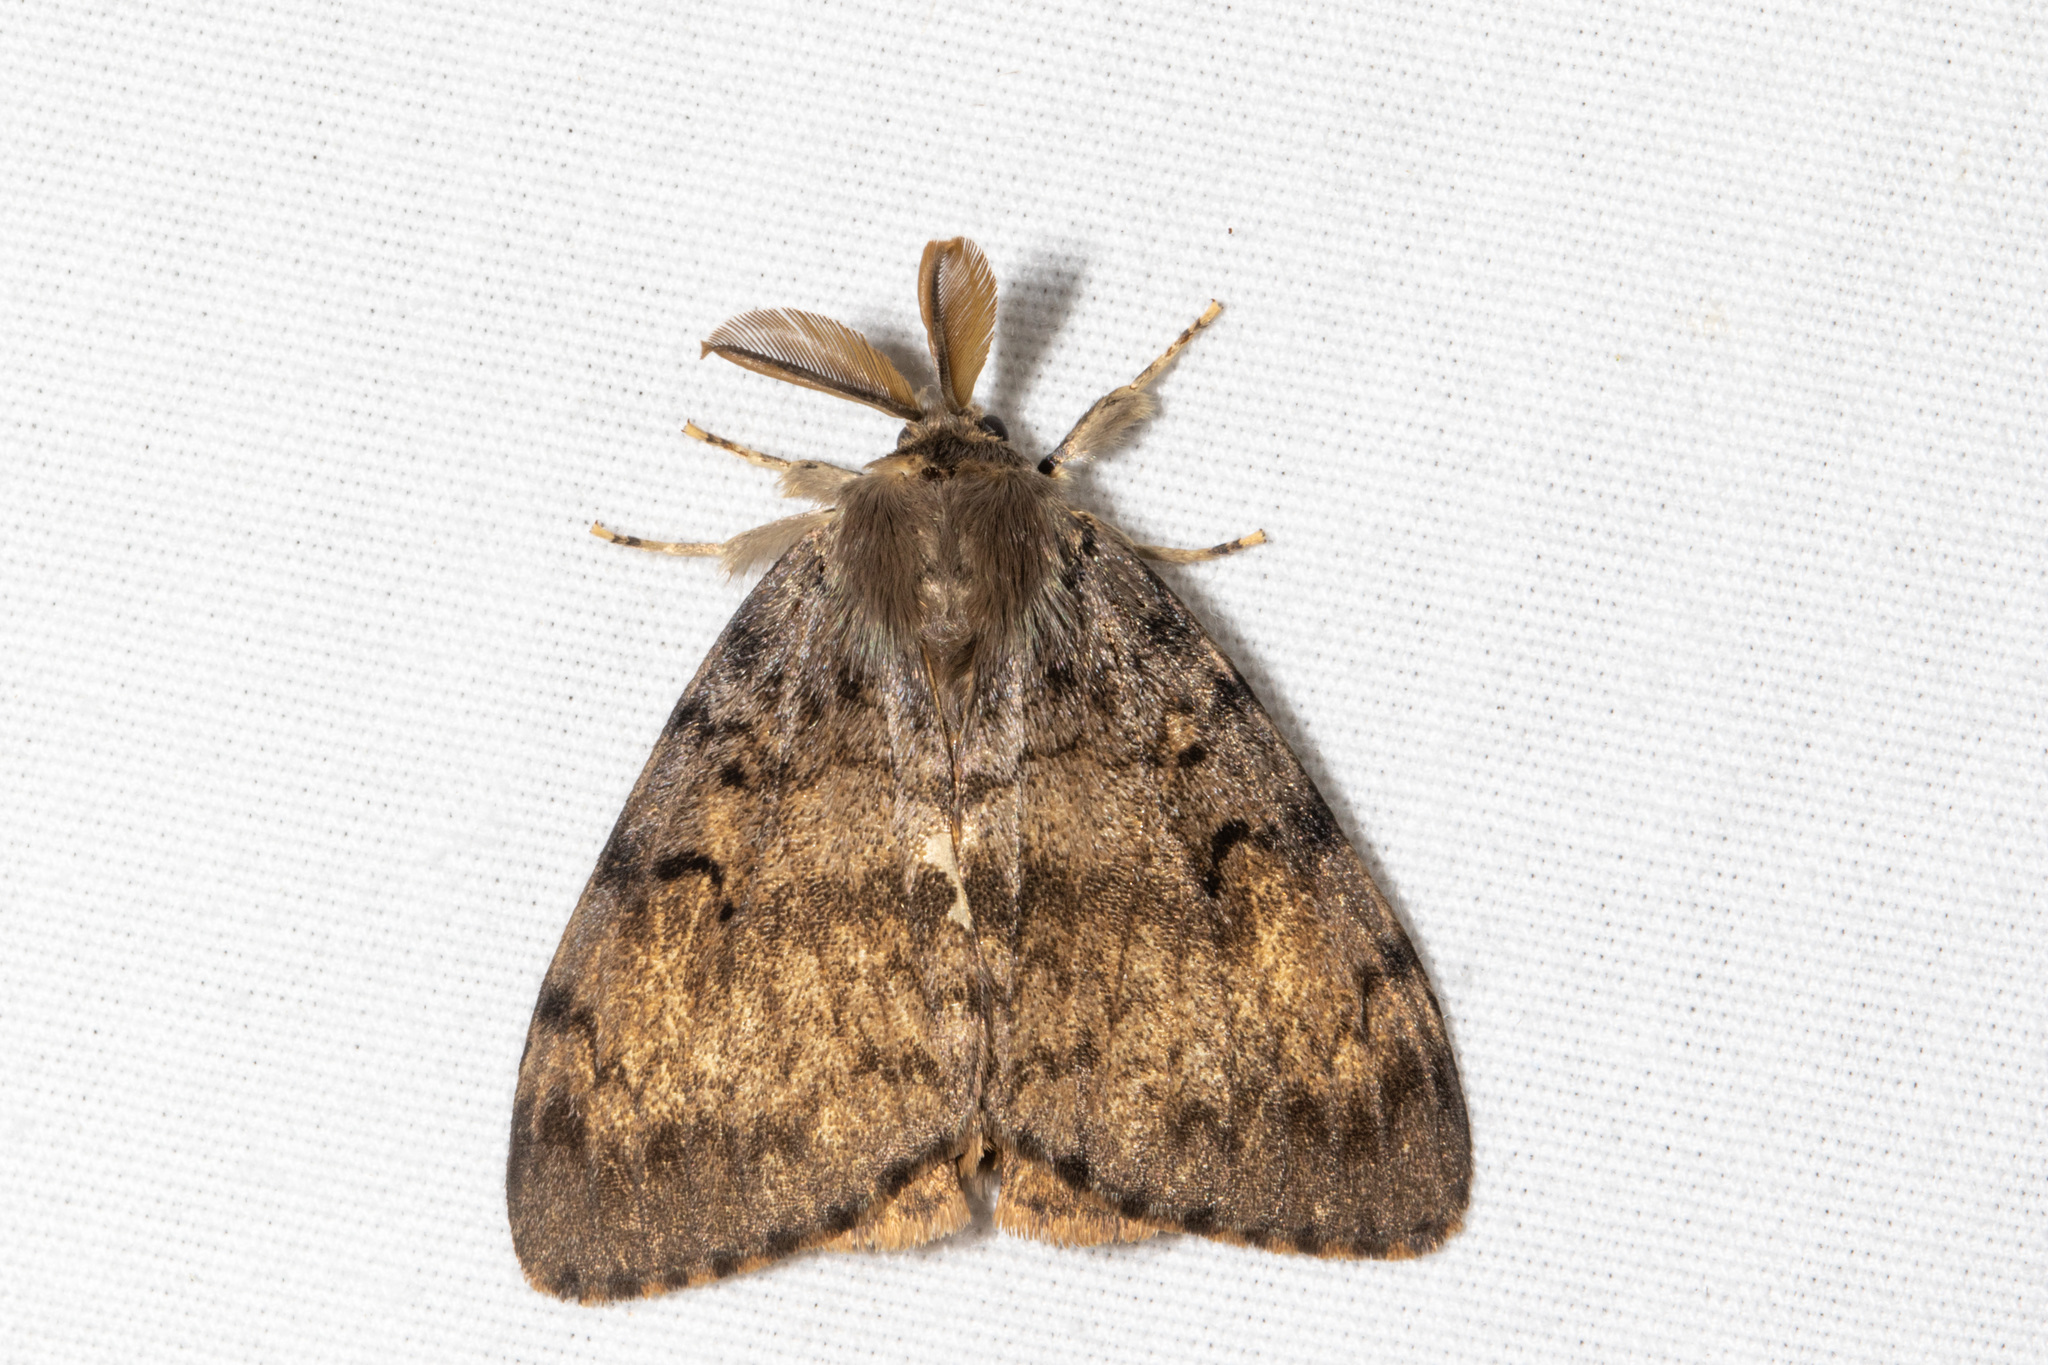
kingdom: Animalia
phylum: Arthropoda
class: Insecta
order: Lepidoptera
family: Erebidae
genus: Lymantria
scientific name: Lymantria dispar
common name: Gypsy moth
